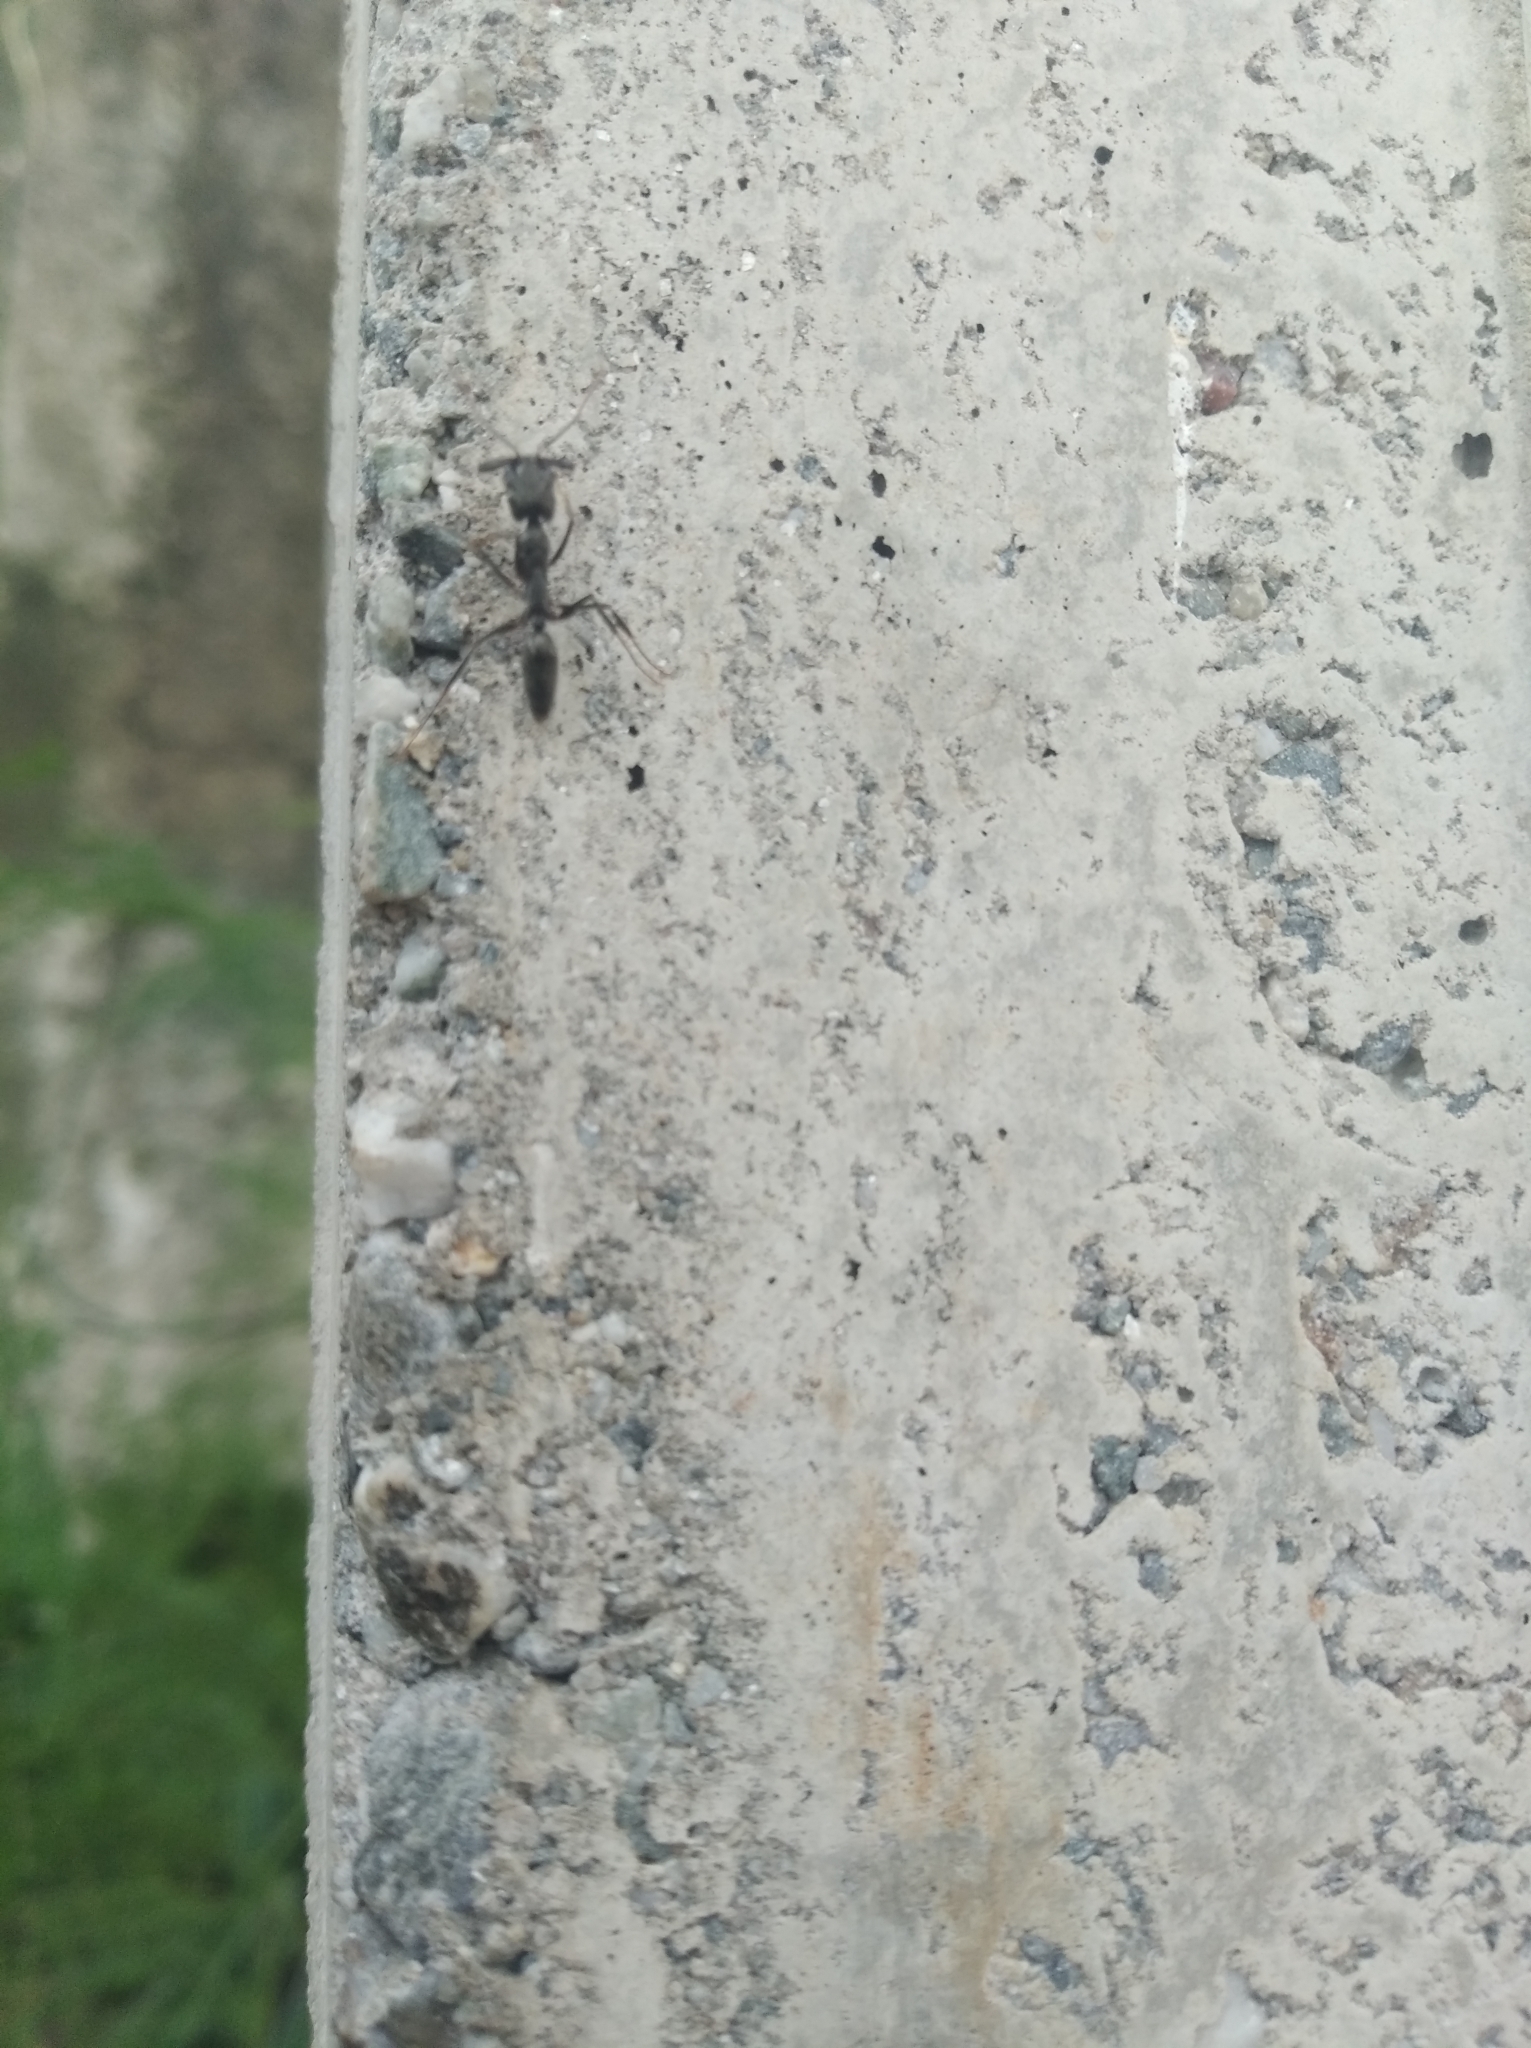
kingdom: Animalia
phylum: Arthropoda
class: Insecta
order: Hymenoptera
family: Formicidae
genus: Odontomachus
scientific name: Odontomachus bauri
